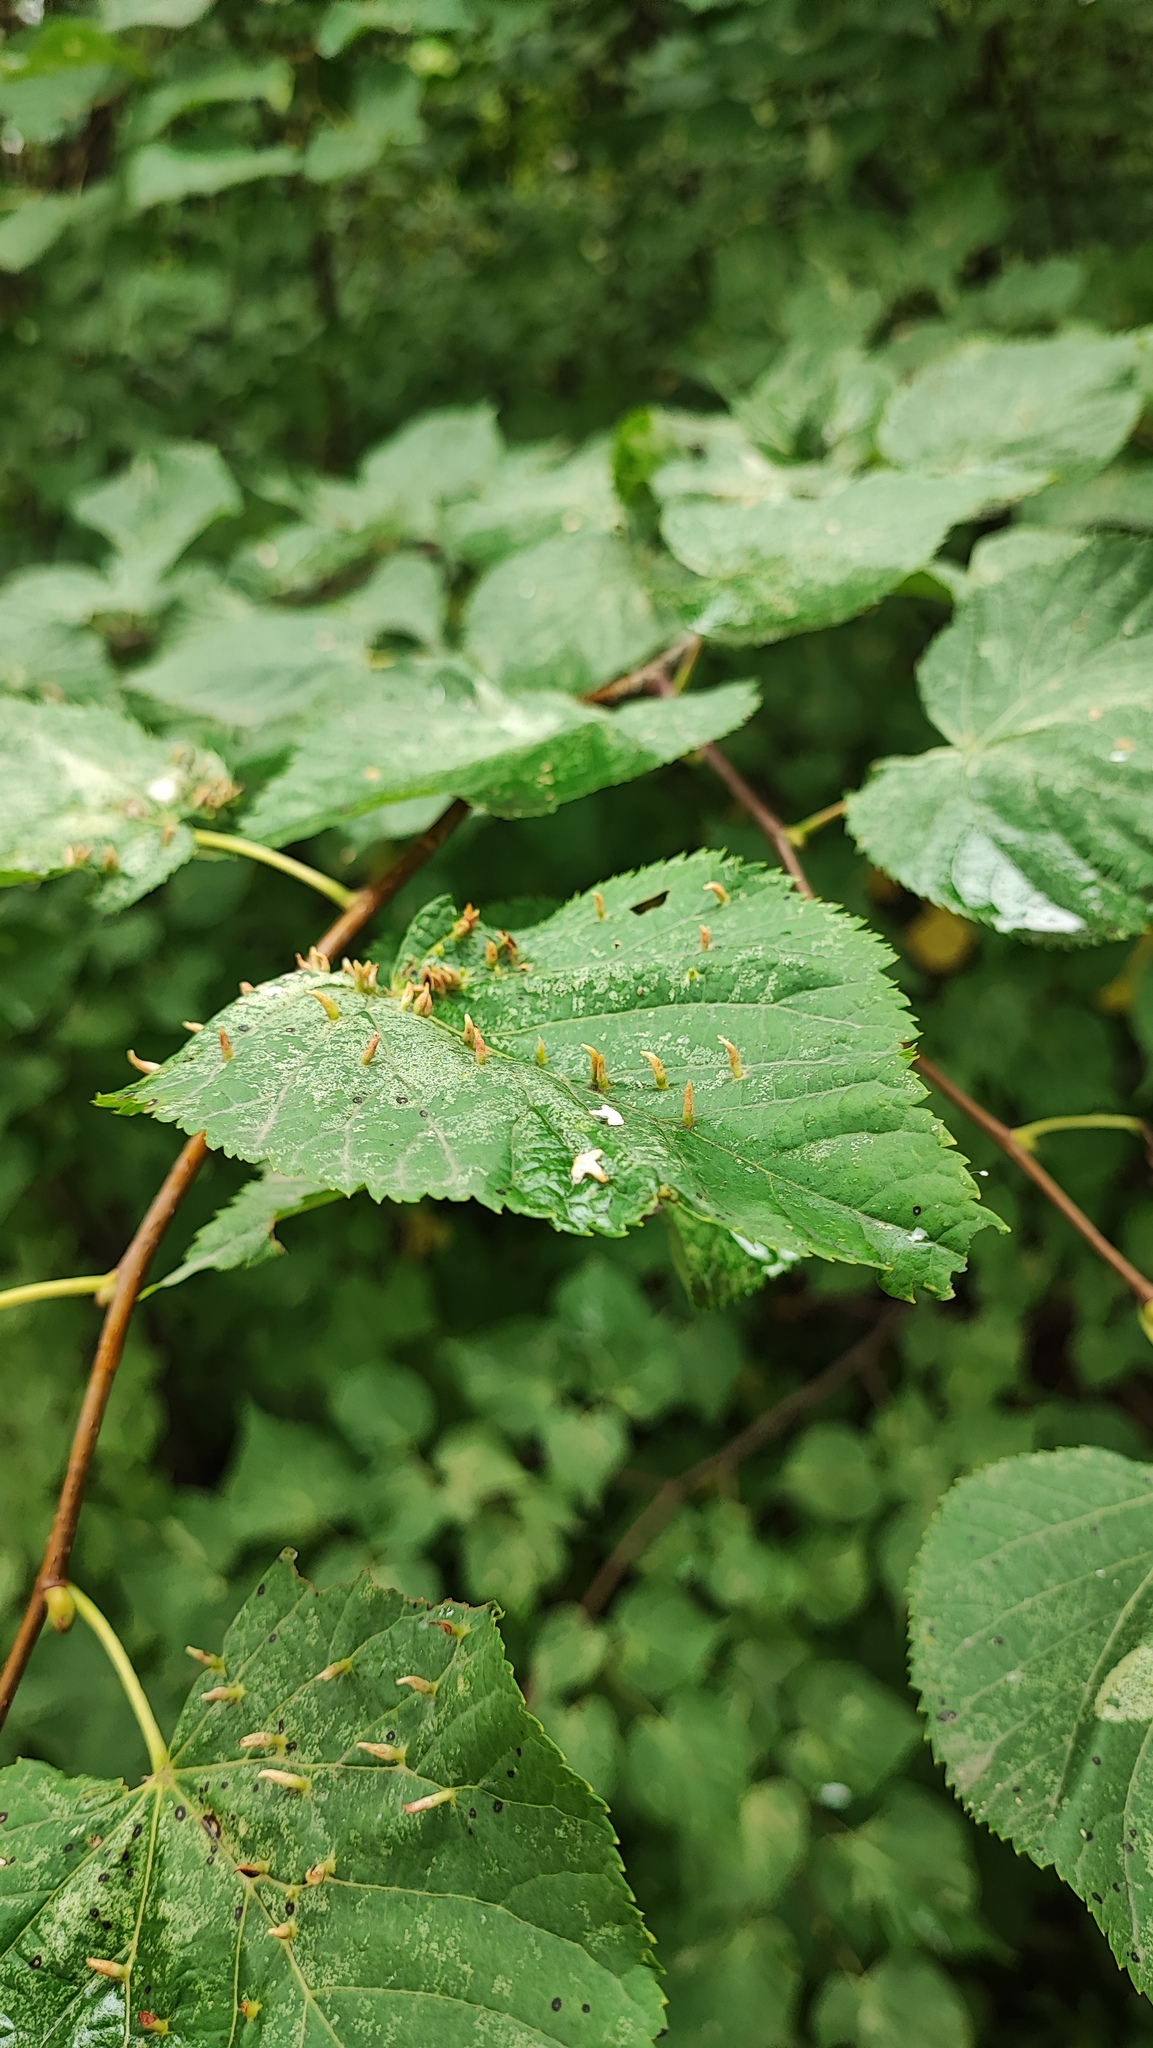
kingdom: Animalia
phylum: Arthropoda
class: Arachnida
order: Trombidiformes
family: Eriophyidae
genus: Eriophyes
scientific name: Eriophyes tiliae
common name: Red nail gall mite
